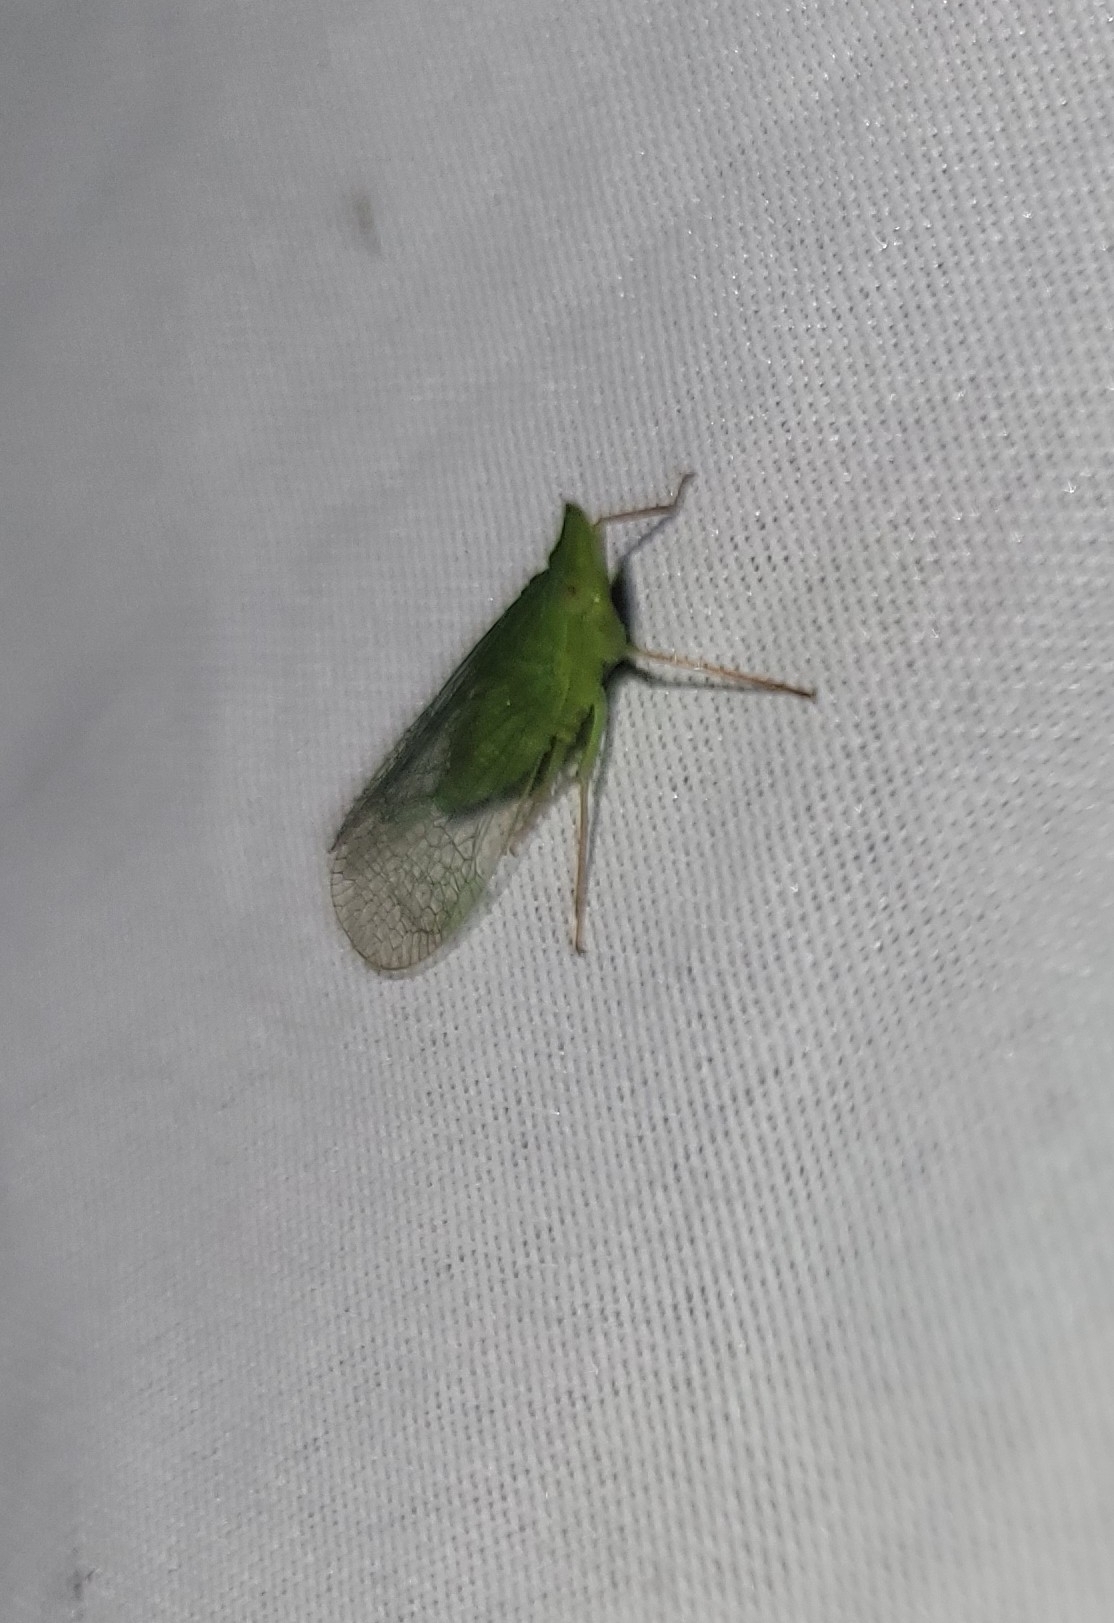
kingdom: Animalia
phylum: Arthropoda
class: Insecta
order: Hemiptera
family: Dictyopharidae
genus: Rhynchomitra
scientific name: Rhynchomitra microrhina
